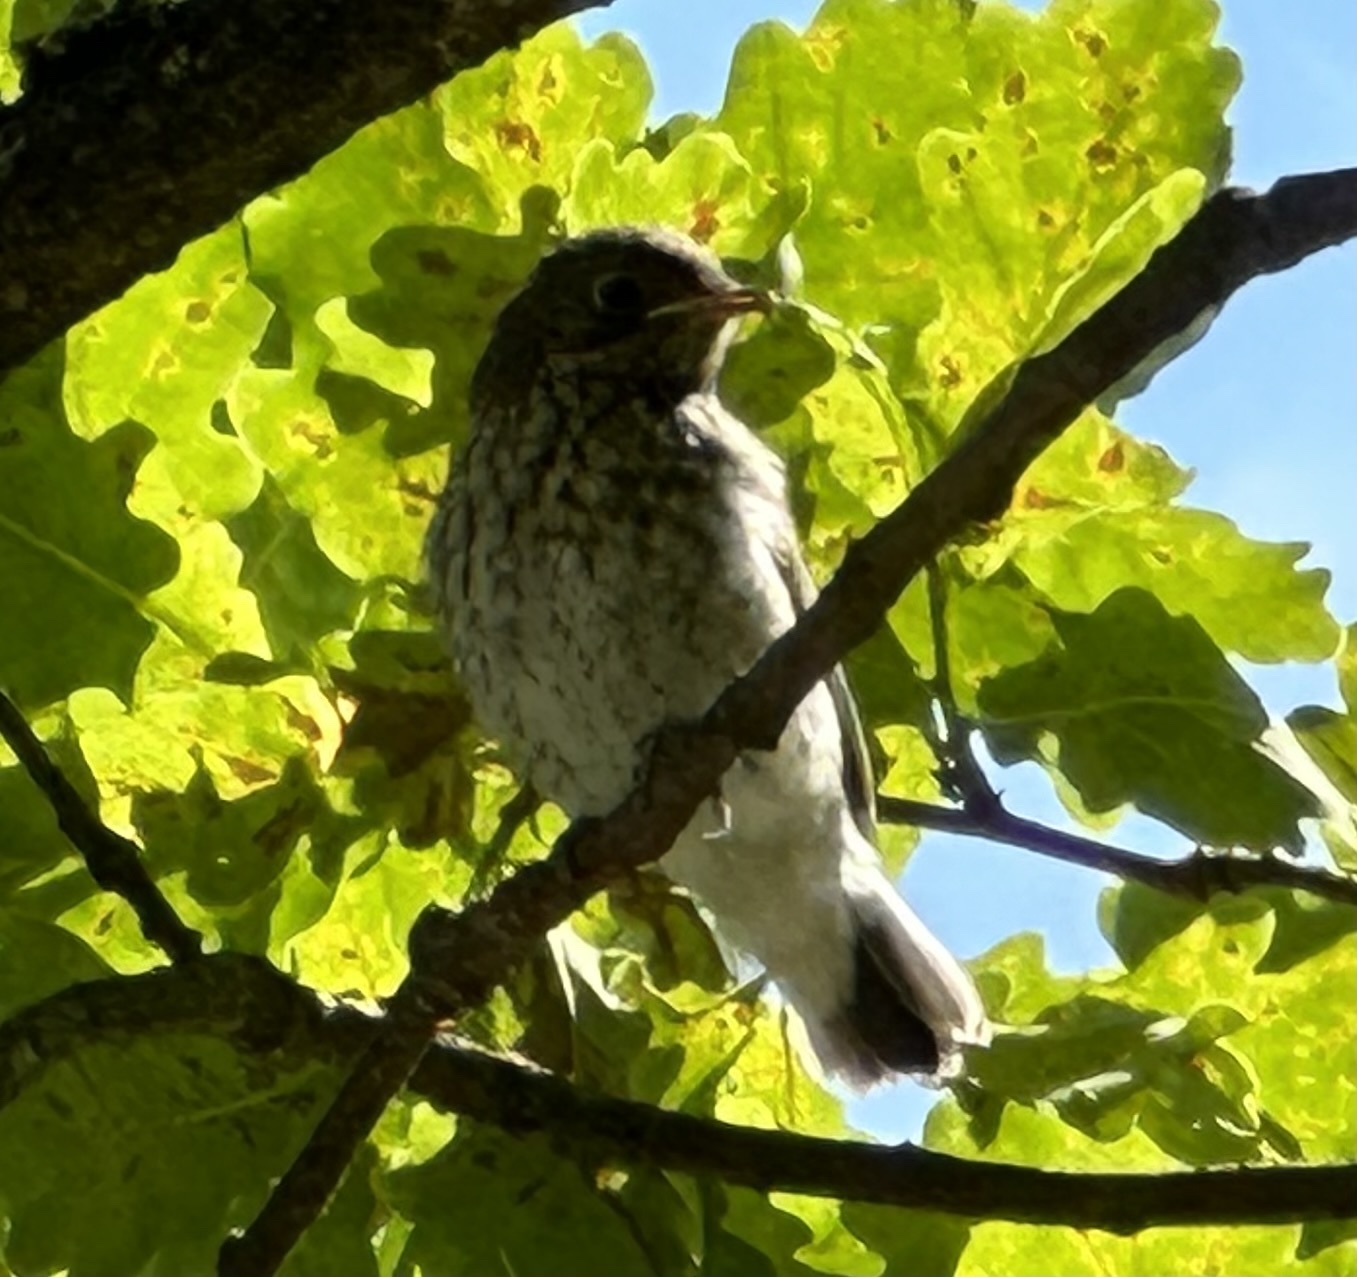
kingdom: Animalia
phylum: Chordata
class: Aves
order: Passeriformes
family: Muscicapidae
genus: Ficedula
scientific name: Ficedula hypoleuca
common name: European pied flycatcher
